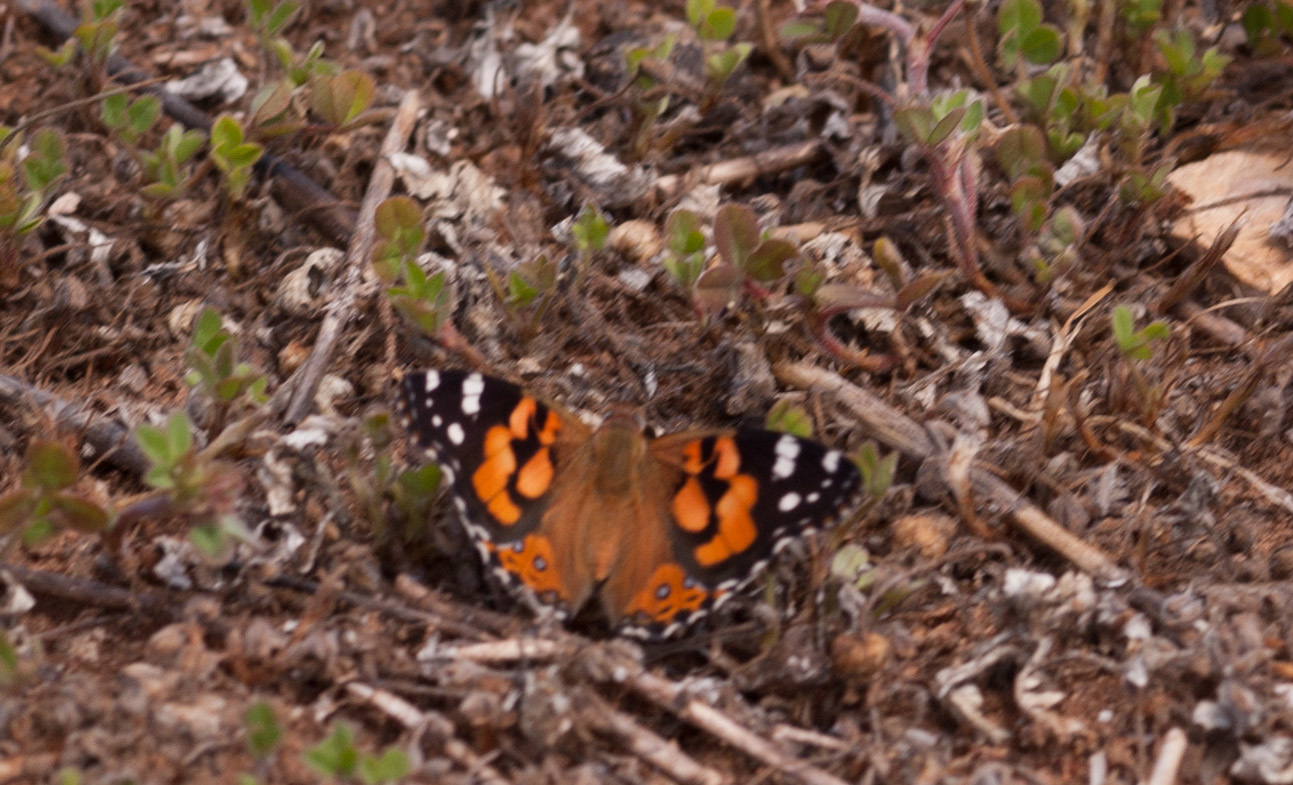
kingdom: Animalia
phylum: Arthropoda
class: Insecta
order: Lepidoptera
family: Nymphalidae
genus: Vanessa
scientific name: Vanessa kershawi
